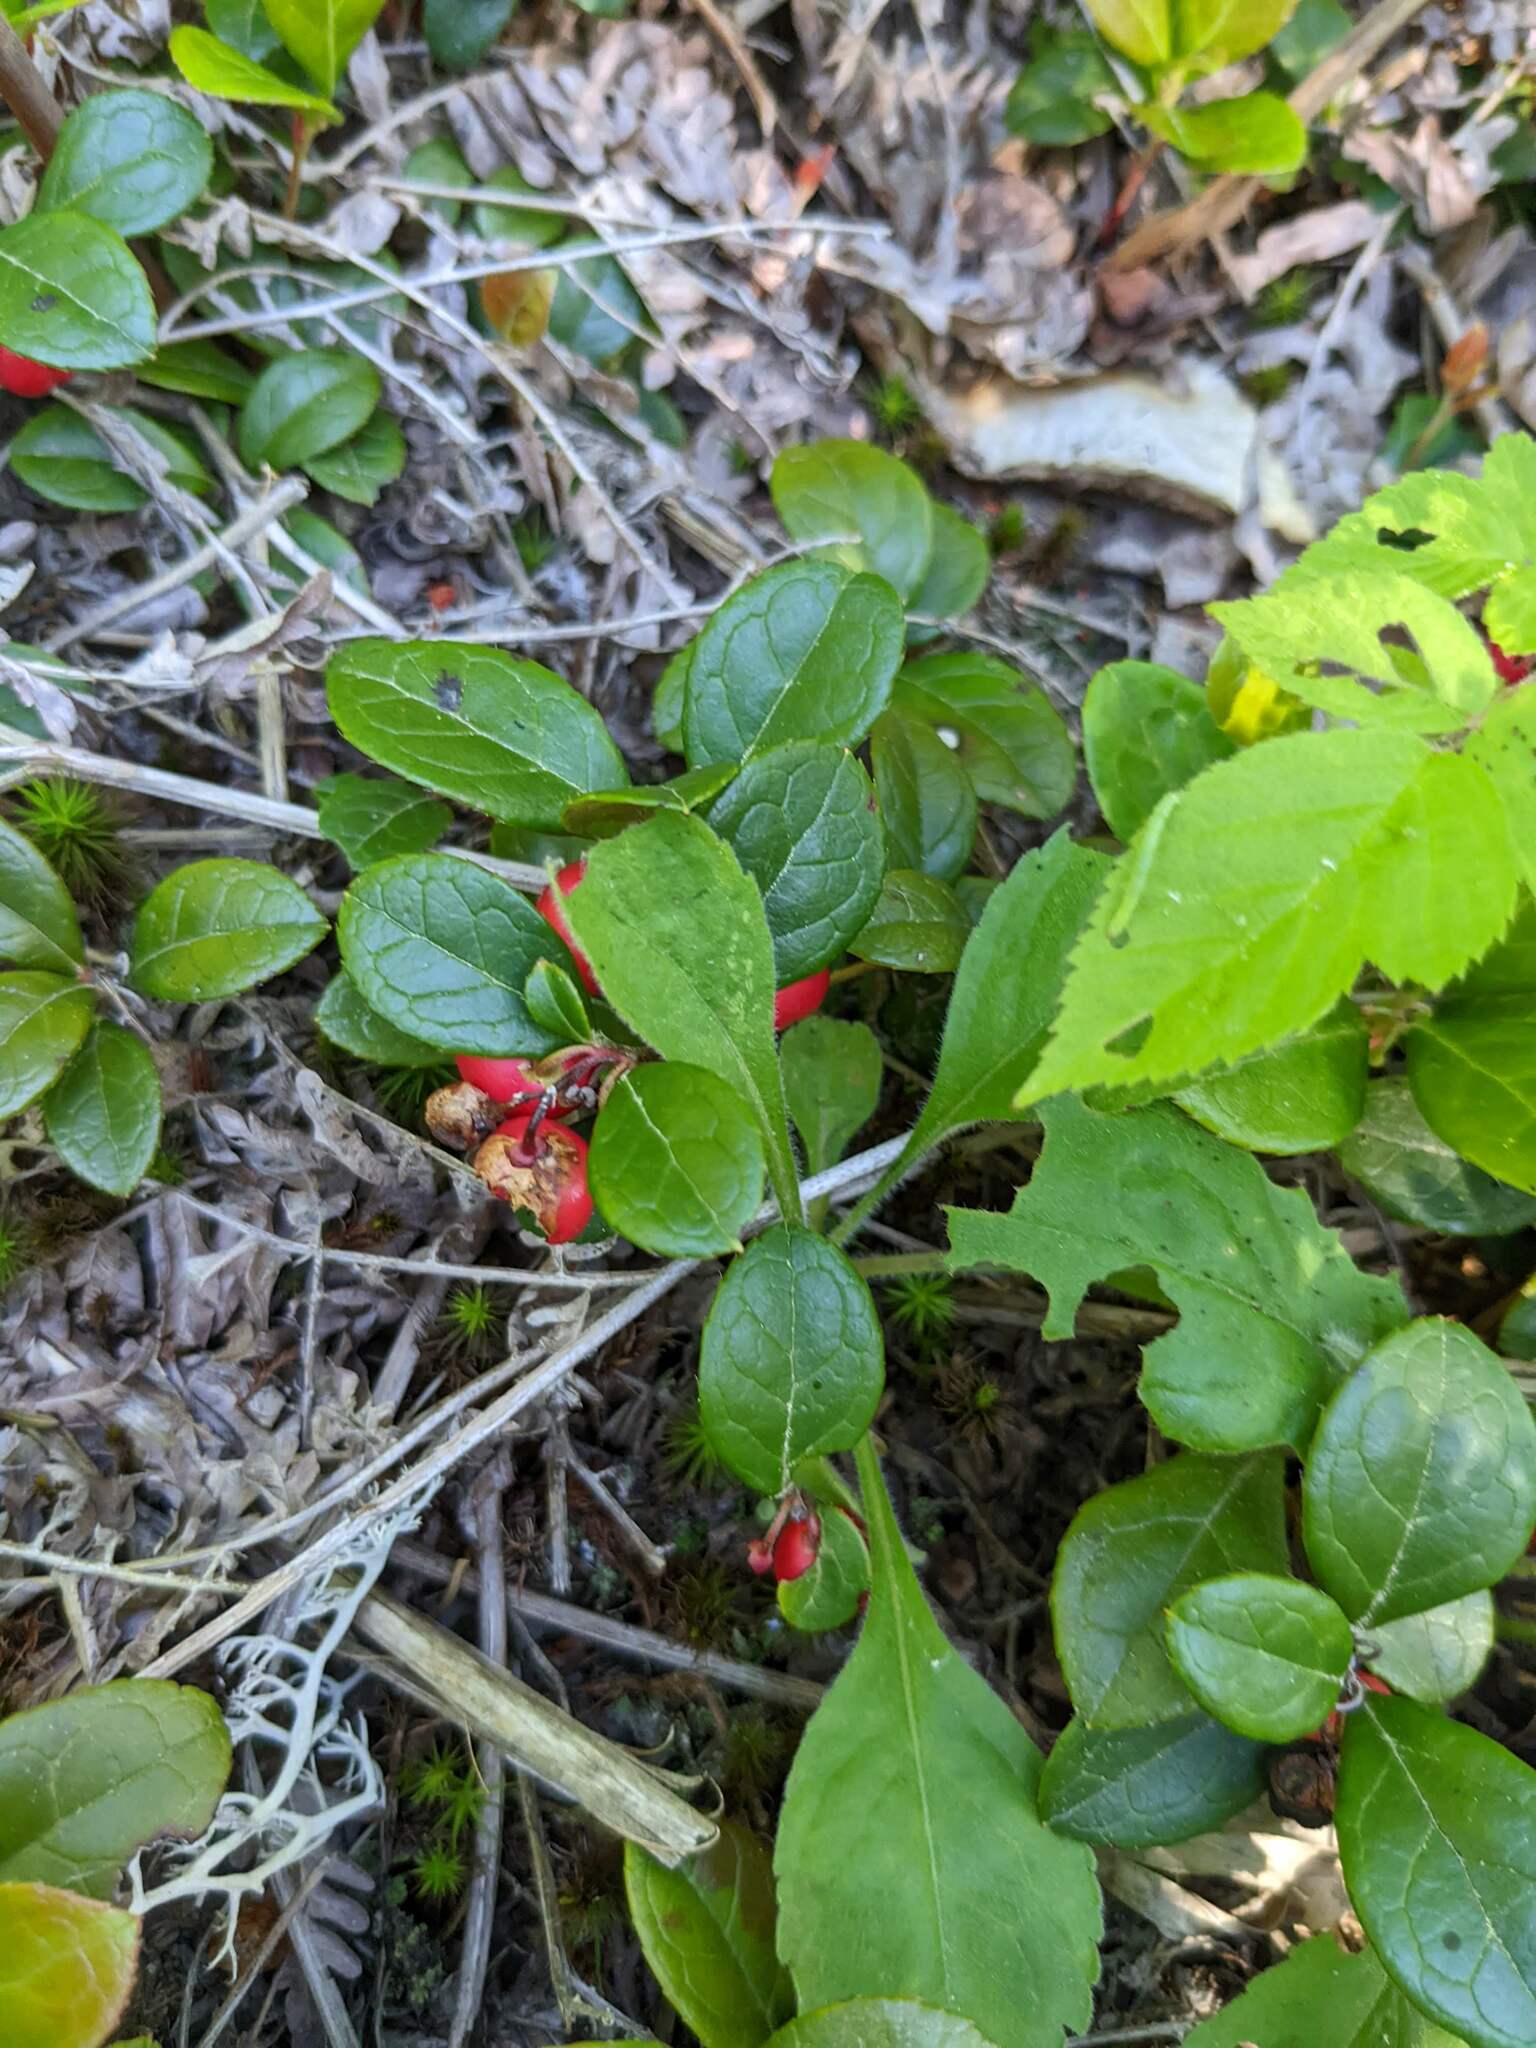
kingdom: Plantae
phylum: Tracheophyta
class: Magnoliopsida
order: Ericales
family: Ericaceae
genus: Gaultheria
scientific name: Gaultheria procumbens
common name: Checkerberry
